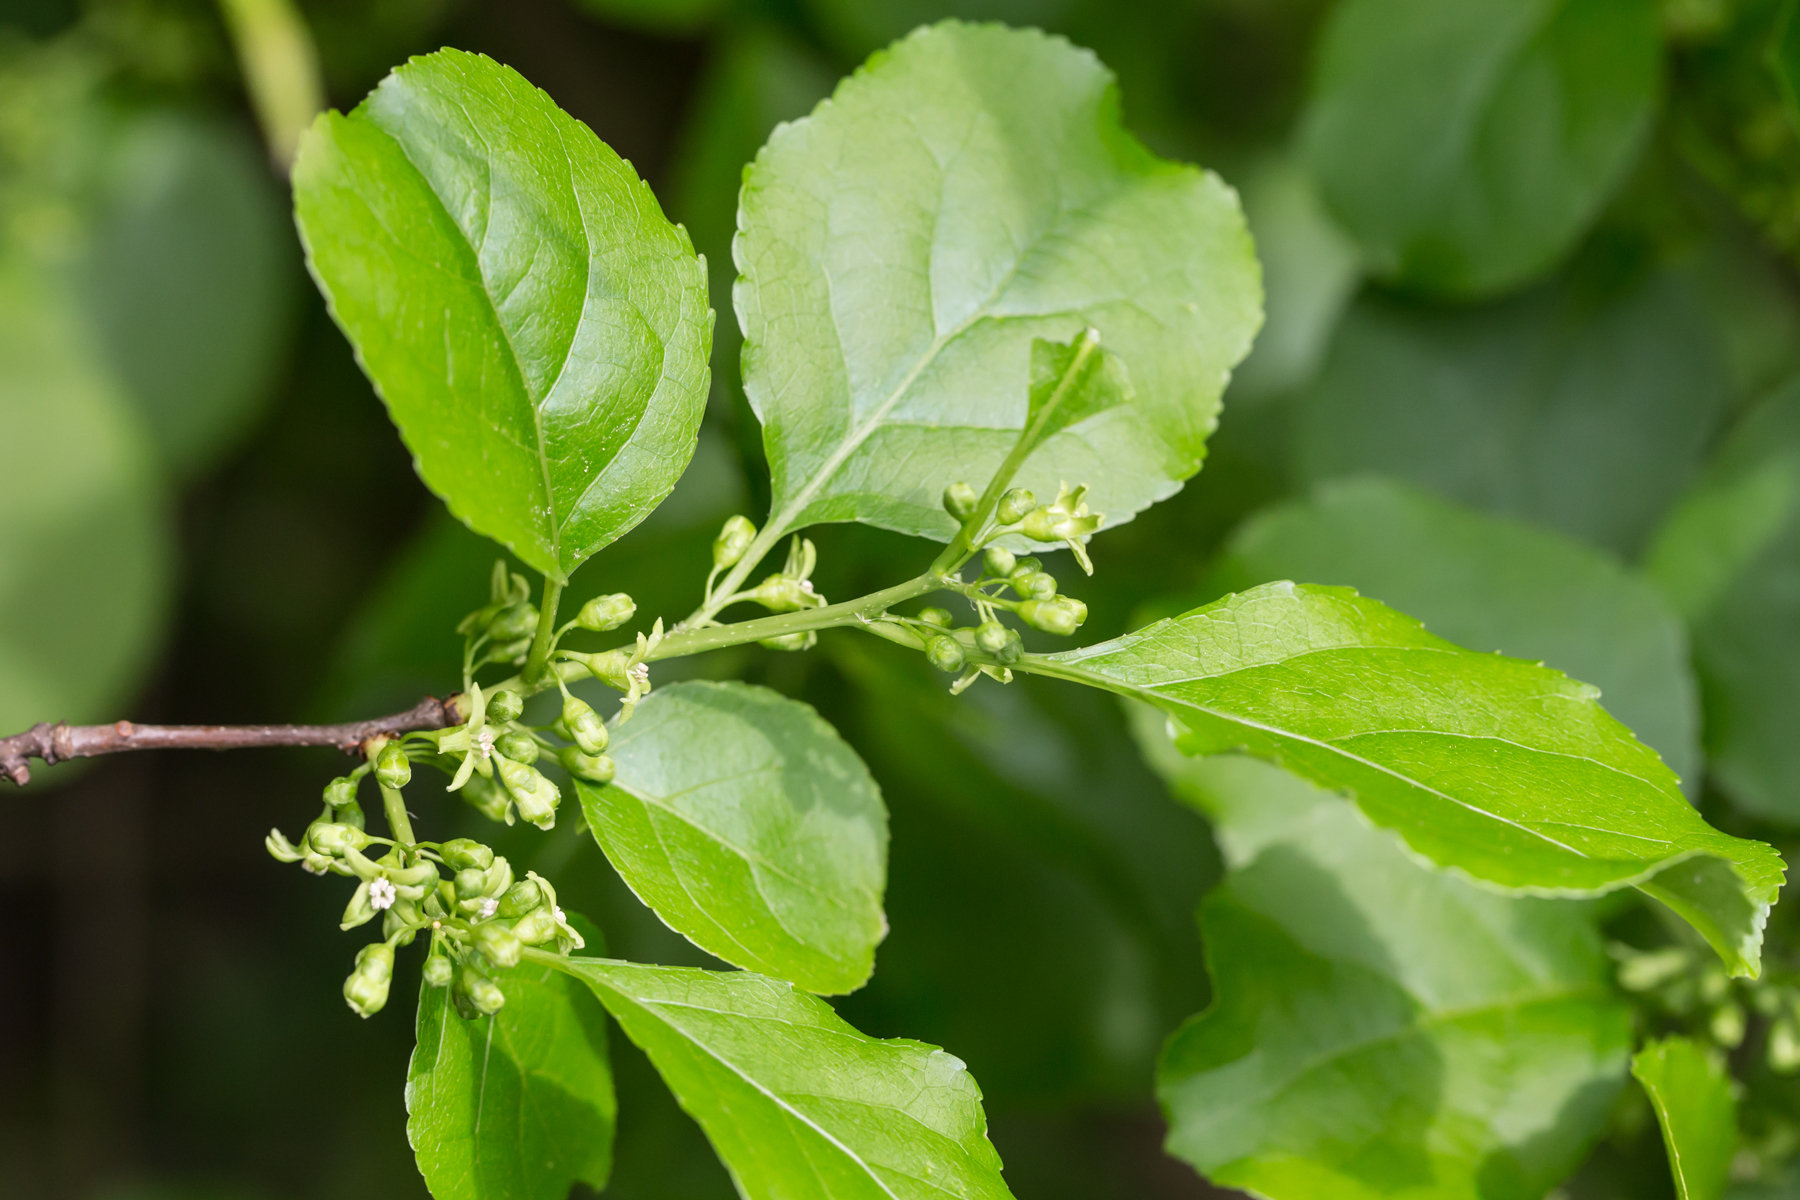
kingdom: Plantae
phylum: Tracheophyta
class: Magnoliopsida
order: Celastrales
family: Celastraceae
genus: Celastrus
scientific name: Celastrus orbiculatus
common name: Oriental bittersweet
